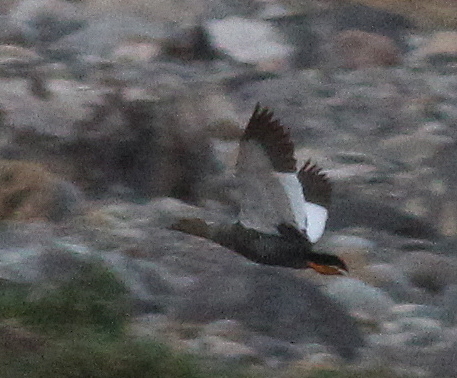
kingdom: Animalia
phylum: Chordata
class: Aves
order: Anseriformes
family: Anatidae
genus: Chloephaga
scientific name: Chloephaga picta
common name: Upland goose
